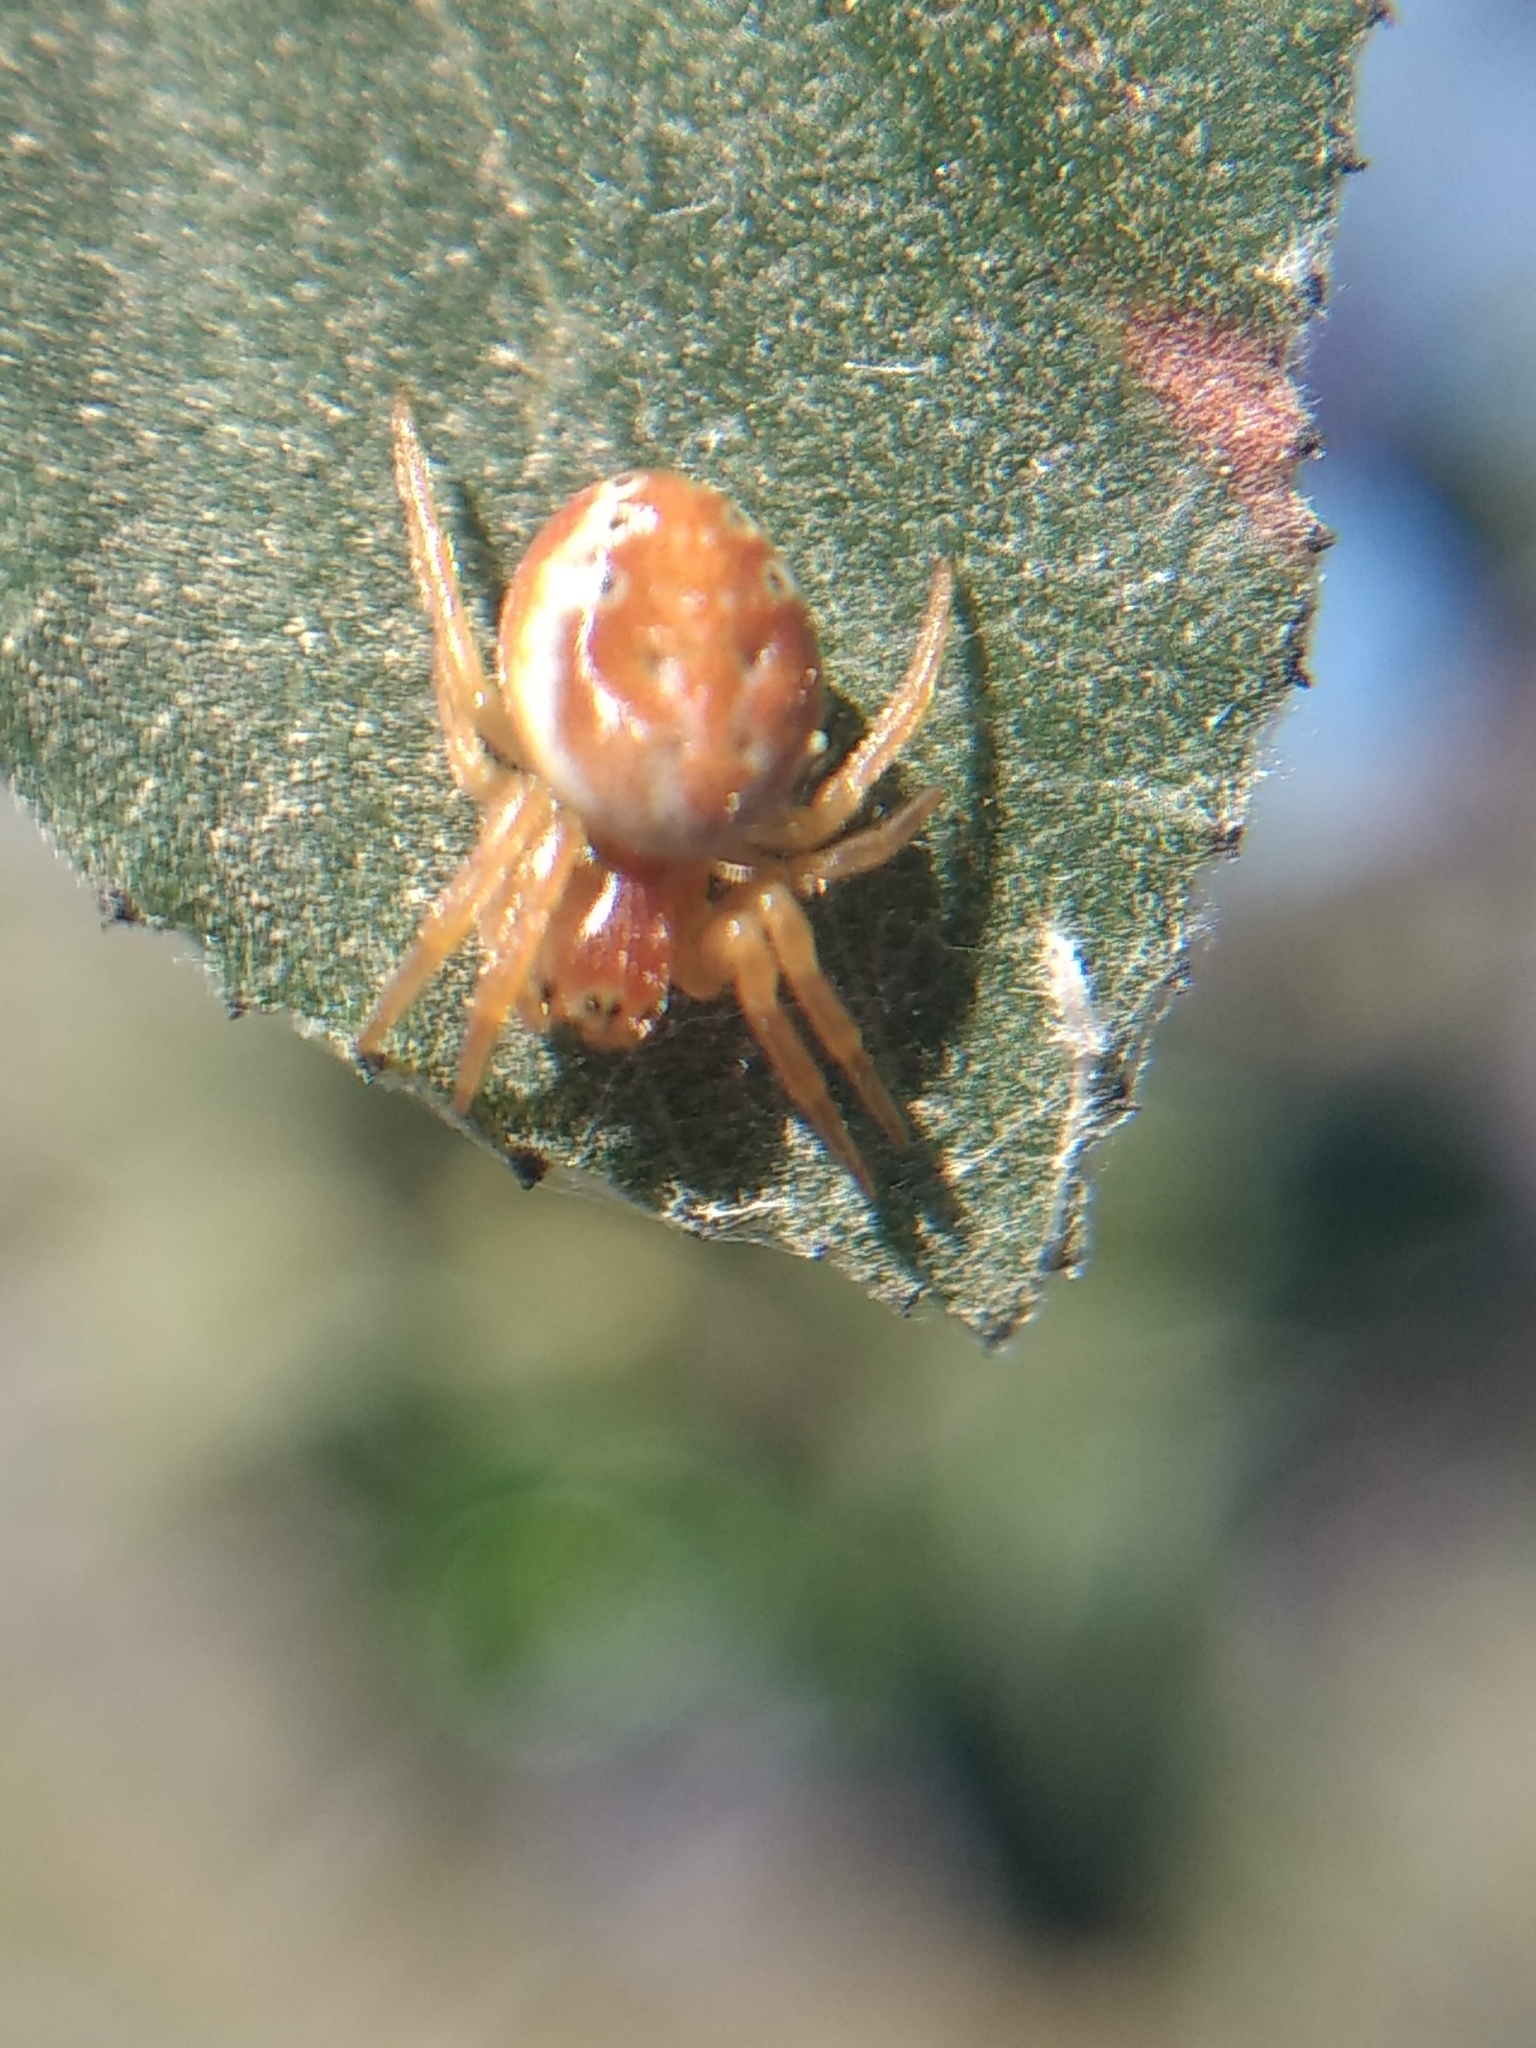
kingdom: Animalia
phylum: Arthropoda
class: Arachnida
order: Araneae
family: Araneidae
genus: Araniella
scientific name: Araniella displicata
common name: Sixspotted orb weaver
